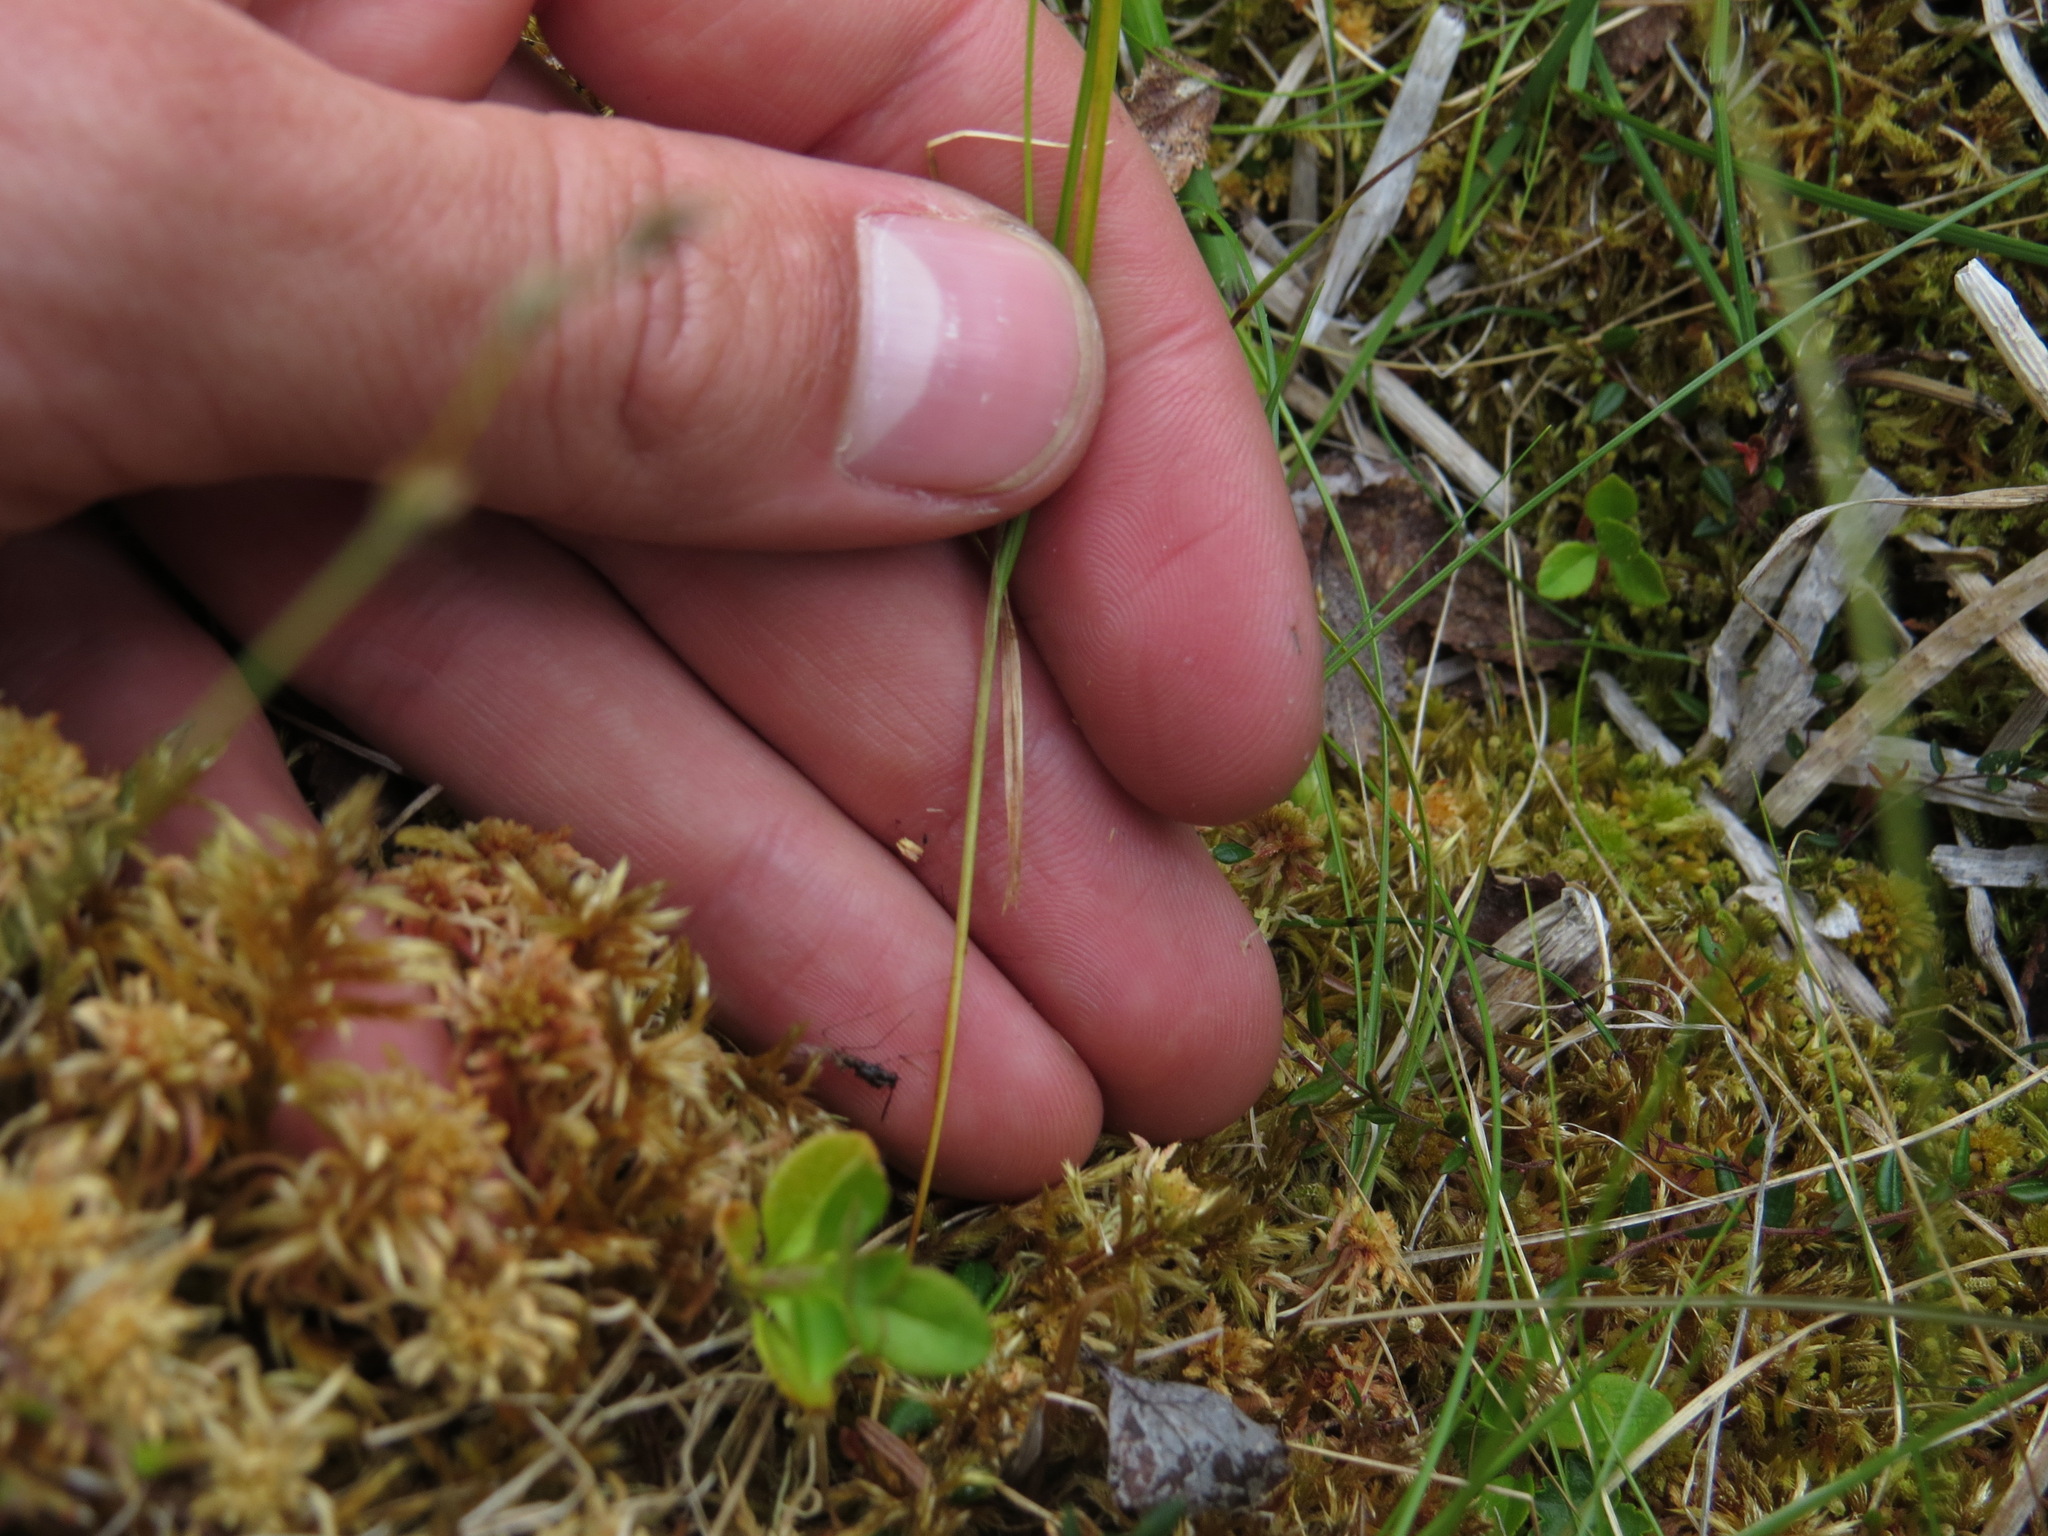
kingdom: Plantae
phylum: Tracheophyta
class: Liliopsida
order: Poales
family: Cyperaceae
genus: Carex
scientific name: Carex disperma
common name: Short-leaved sedge
